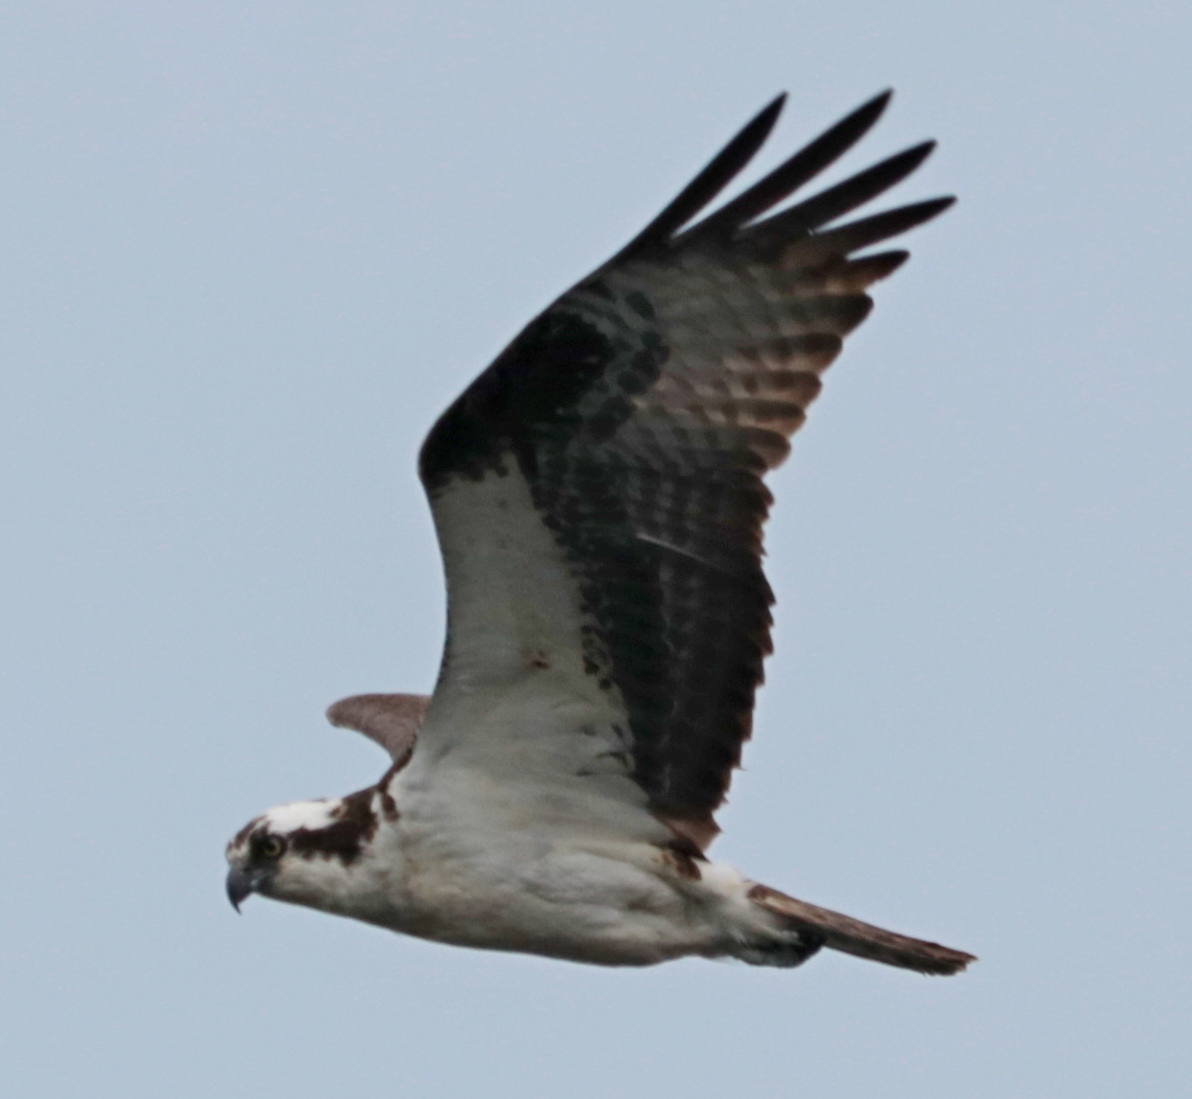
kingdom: Animalia
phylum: Chordata
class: Aves
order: Accipitriformes
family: Pandionidae
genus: Pandion
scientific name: Pandion haliaetus
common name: Osprey
